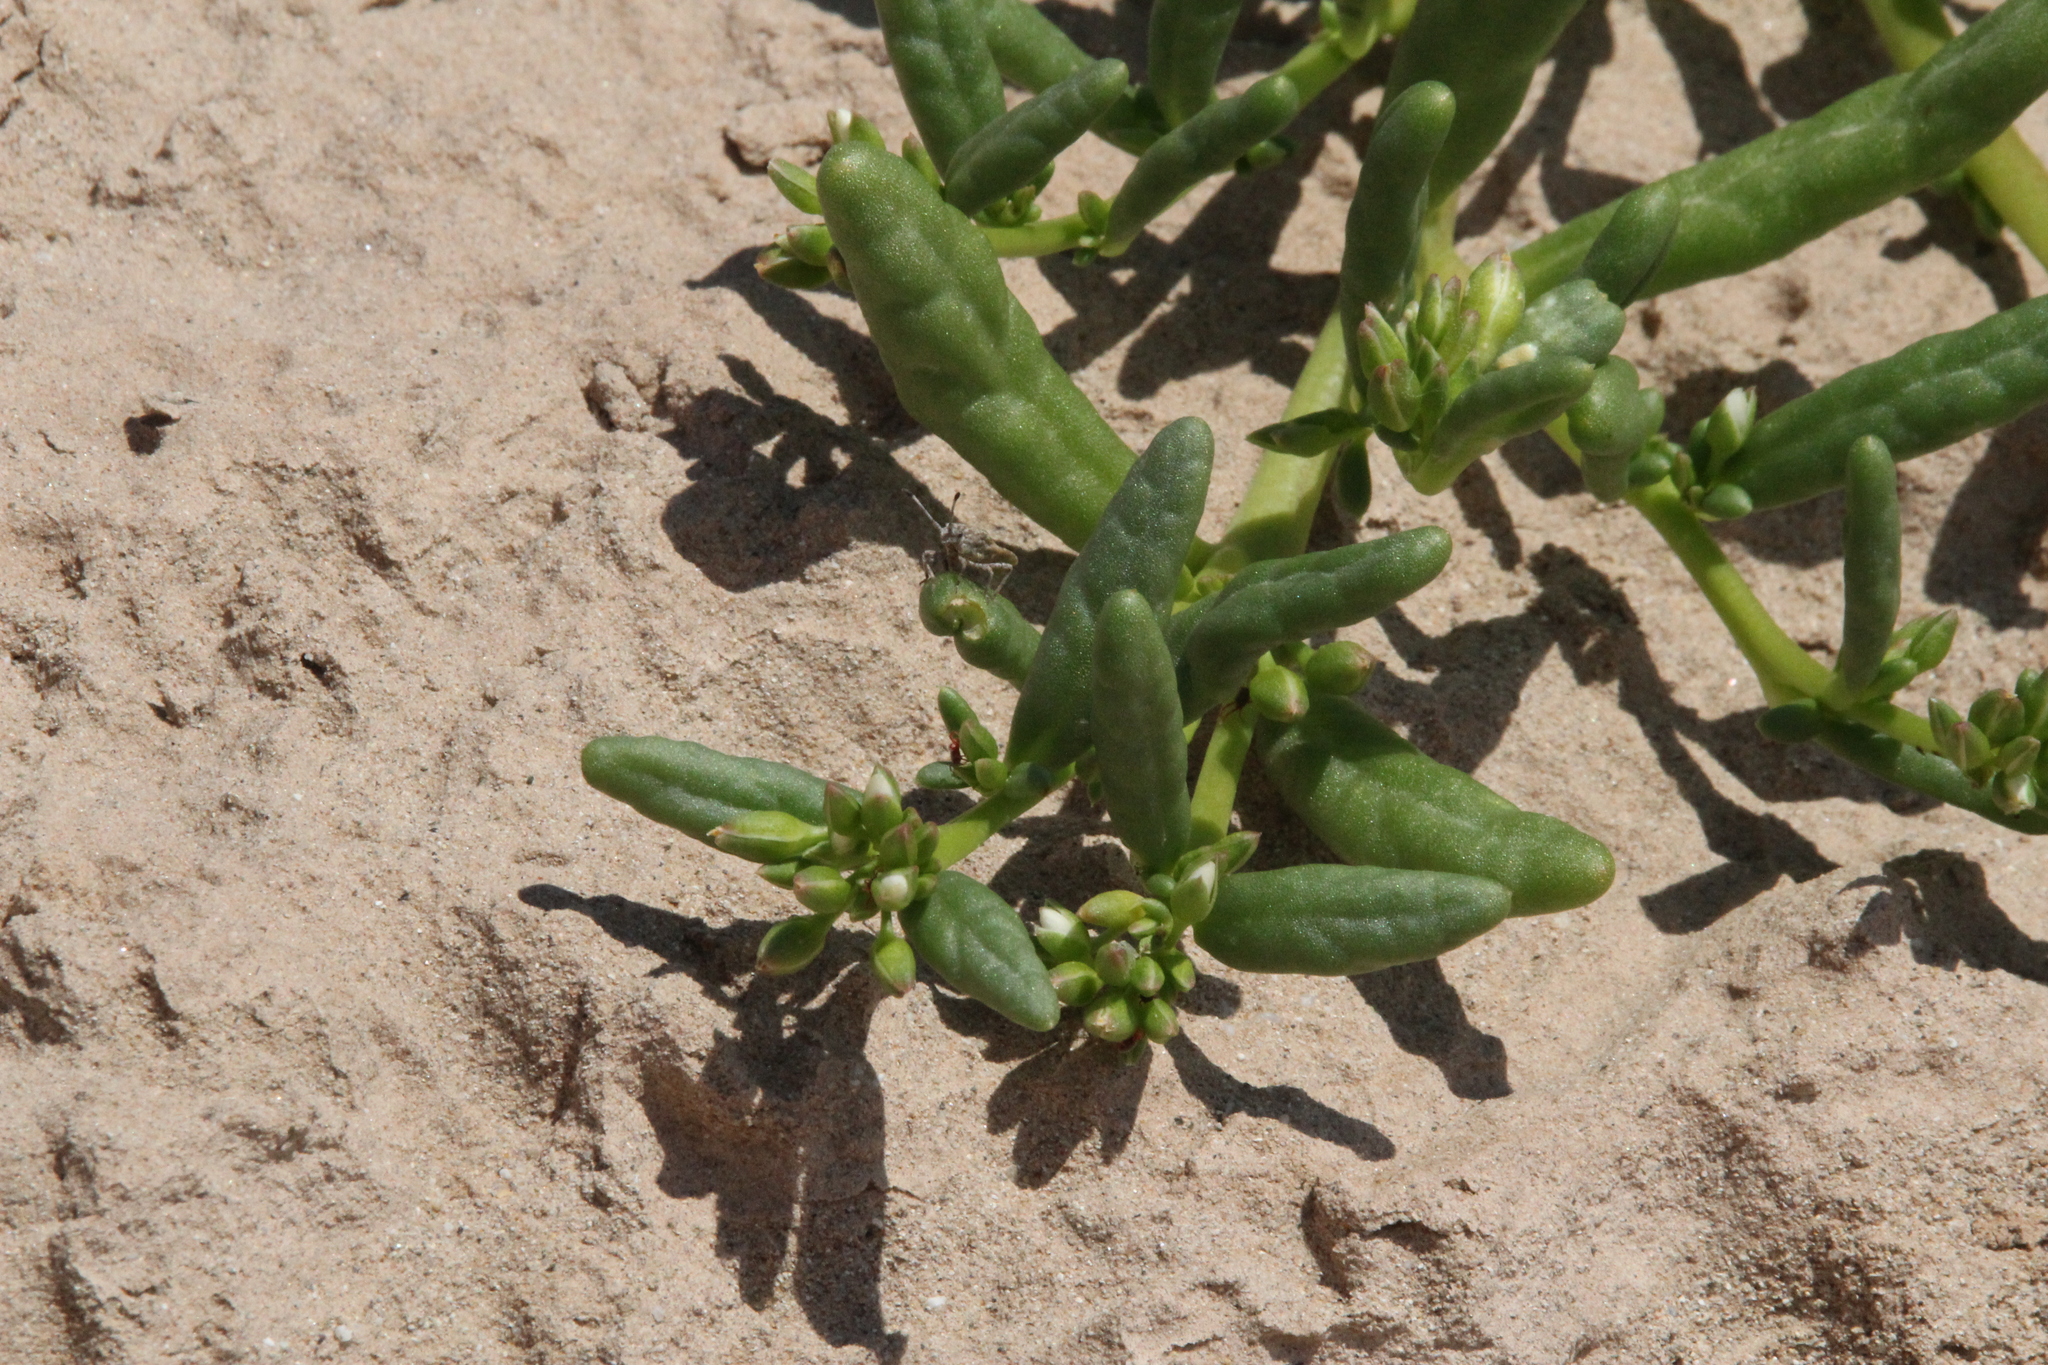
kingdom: Plantae
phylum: Tracheophyta
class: Magnoliopsida
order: Caryophyllales
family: Montiaceae
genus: Thingia
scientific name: Thingia ambigua
